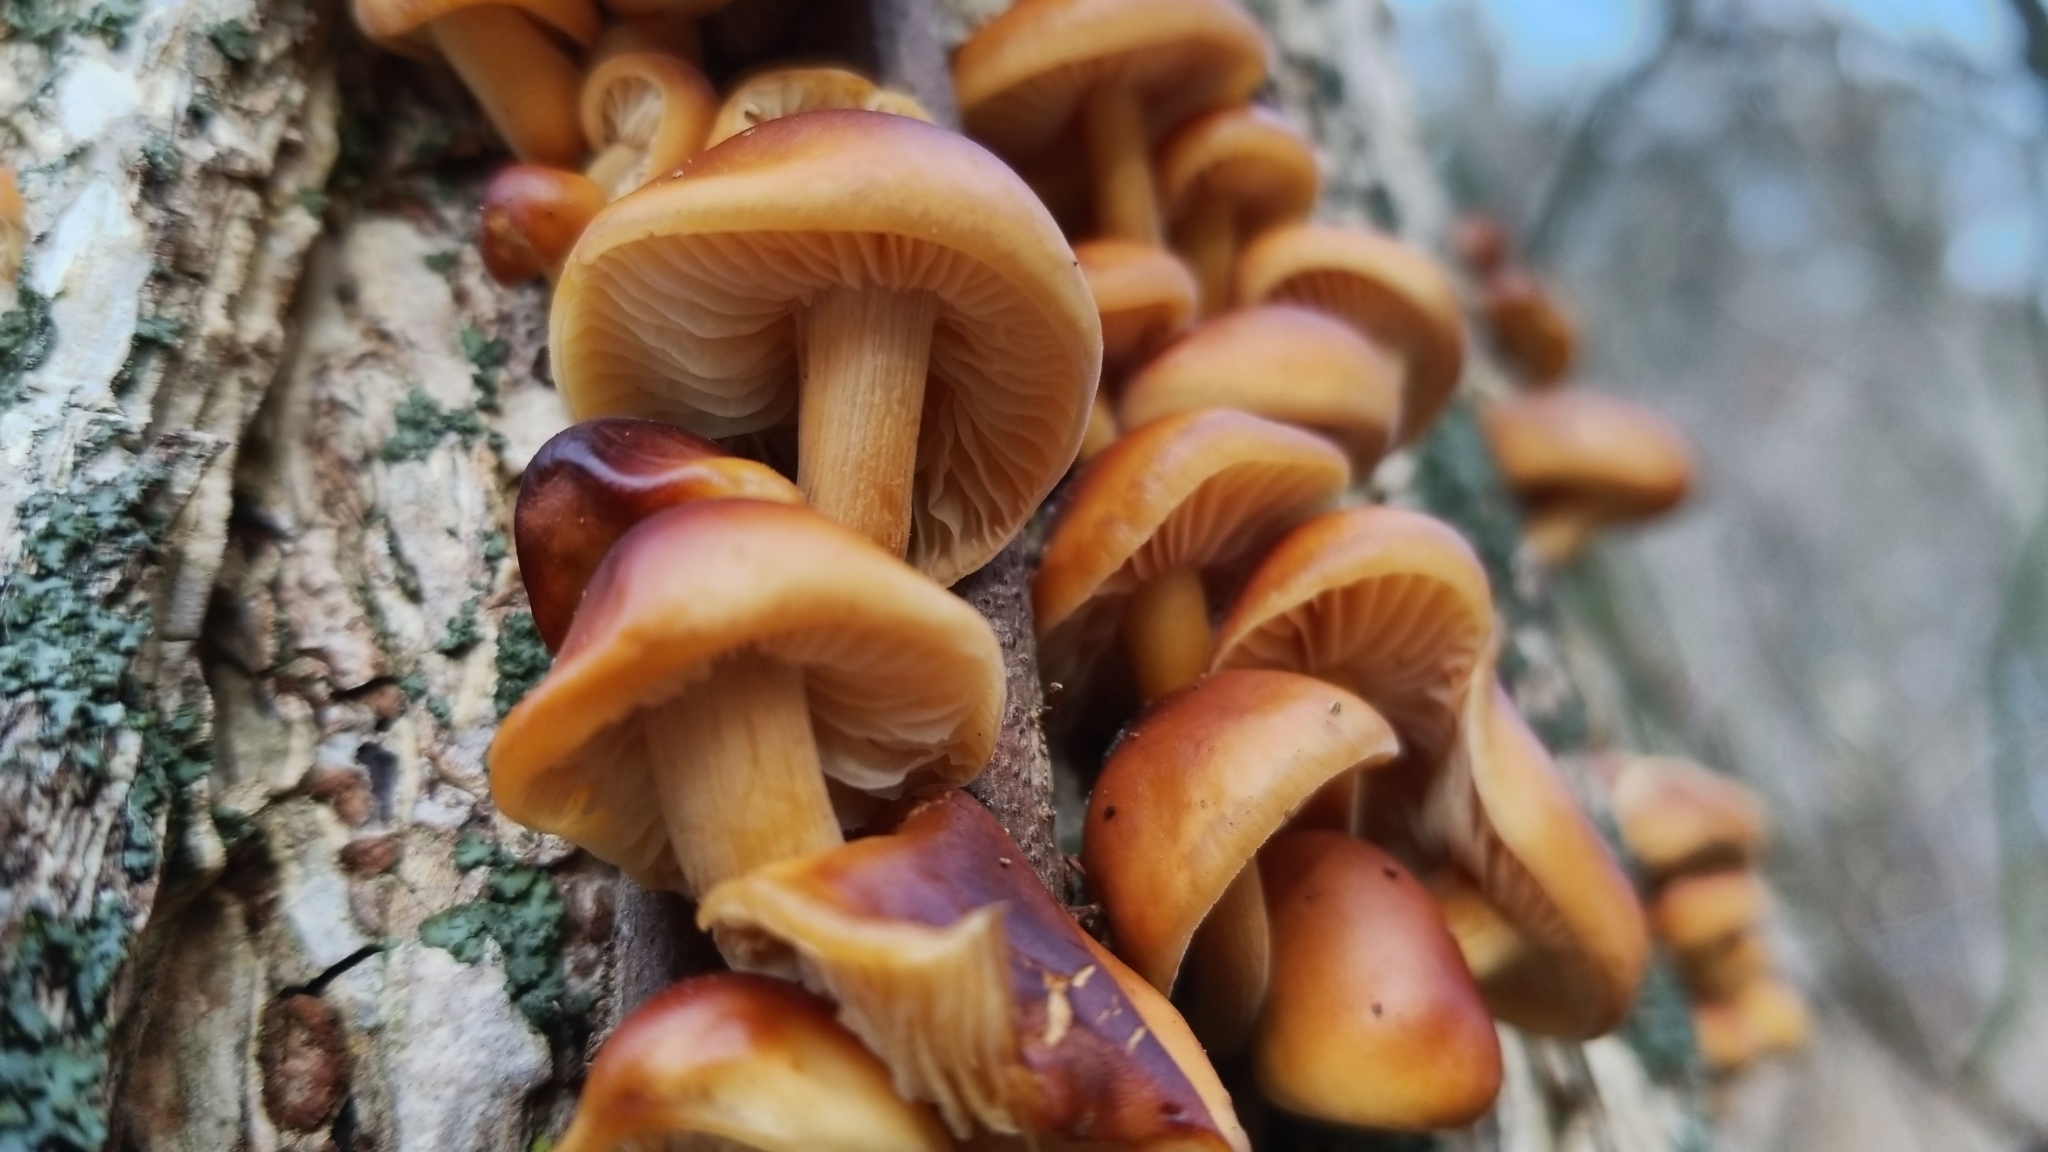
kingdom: Fungi
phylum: Basidiomycota
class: Agaricomycetes
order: Agaricales
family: Physalacriaceae
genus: Flammulina
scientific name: Flammulina velutipes
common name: Velvet shank
